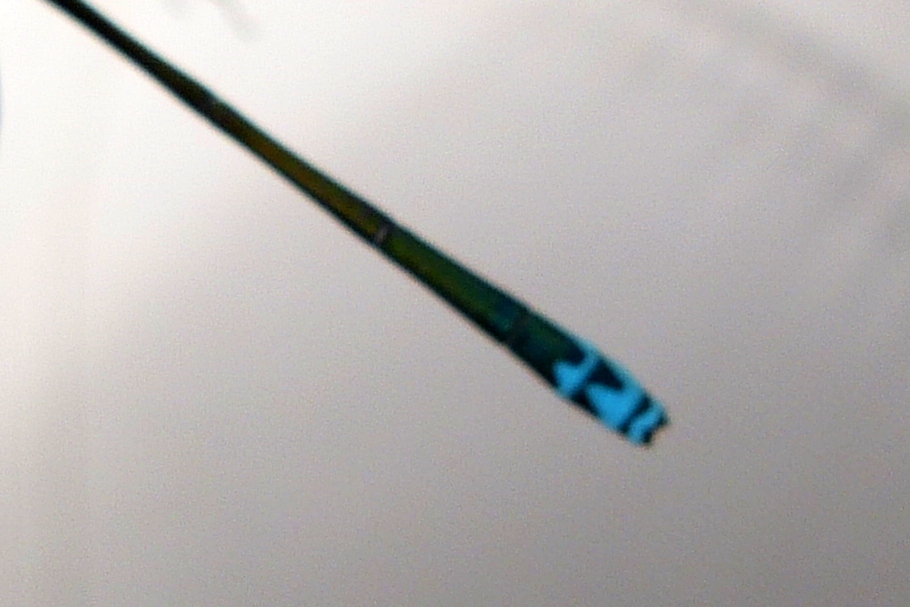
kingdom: Animalia
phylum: Arthropoda
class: Insecta
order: Odonata
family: Coenagrionidae
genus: Nehalennia
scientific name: Nehalennia irene
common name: Sedge sprite
